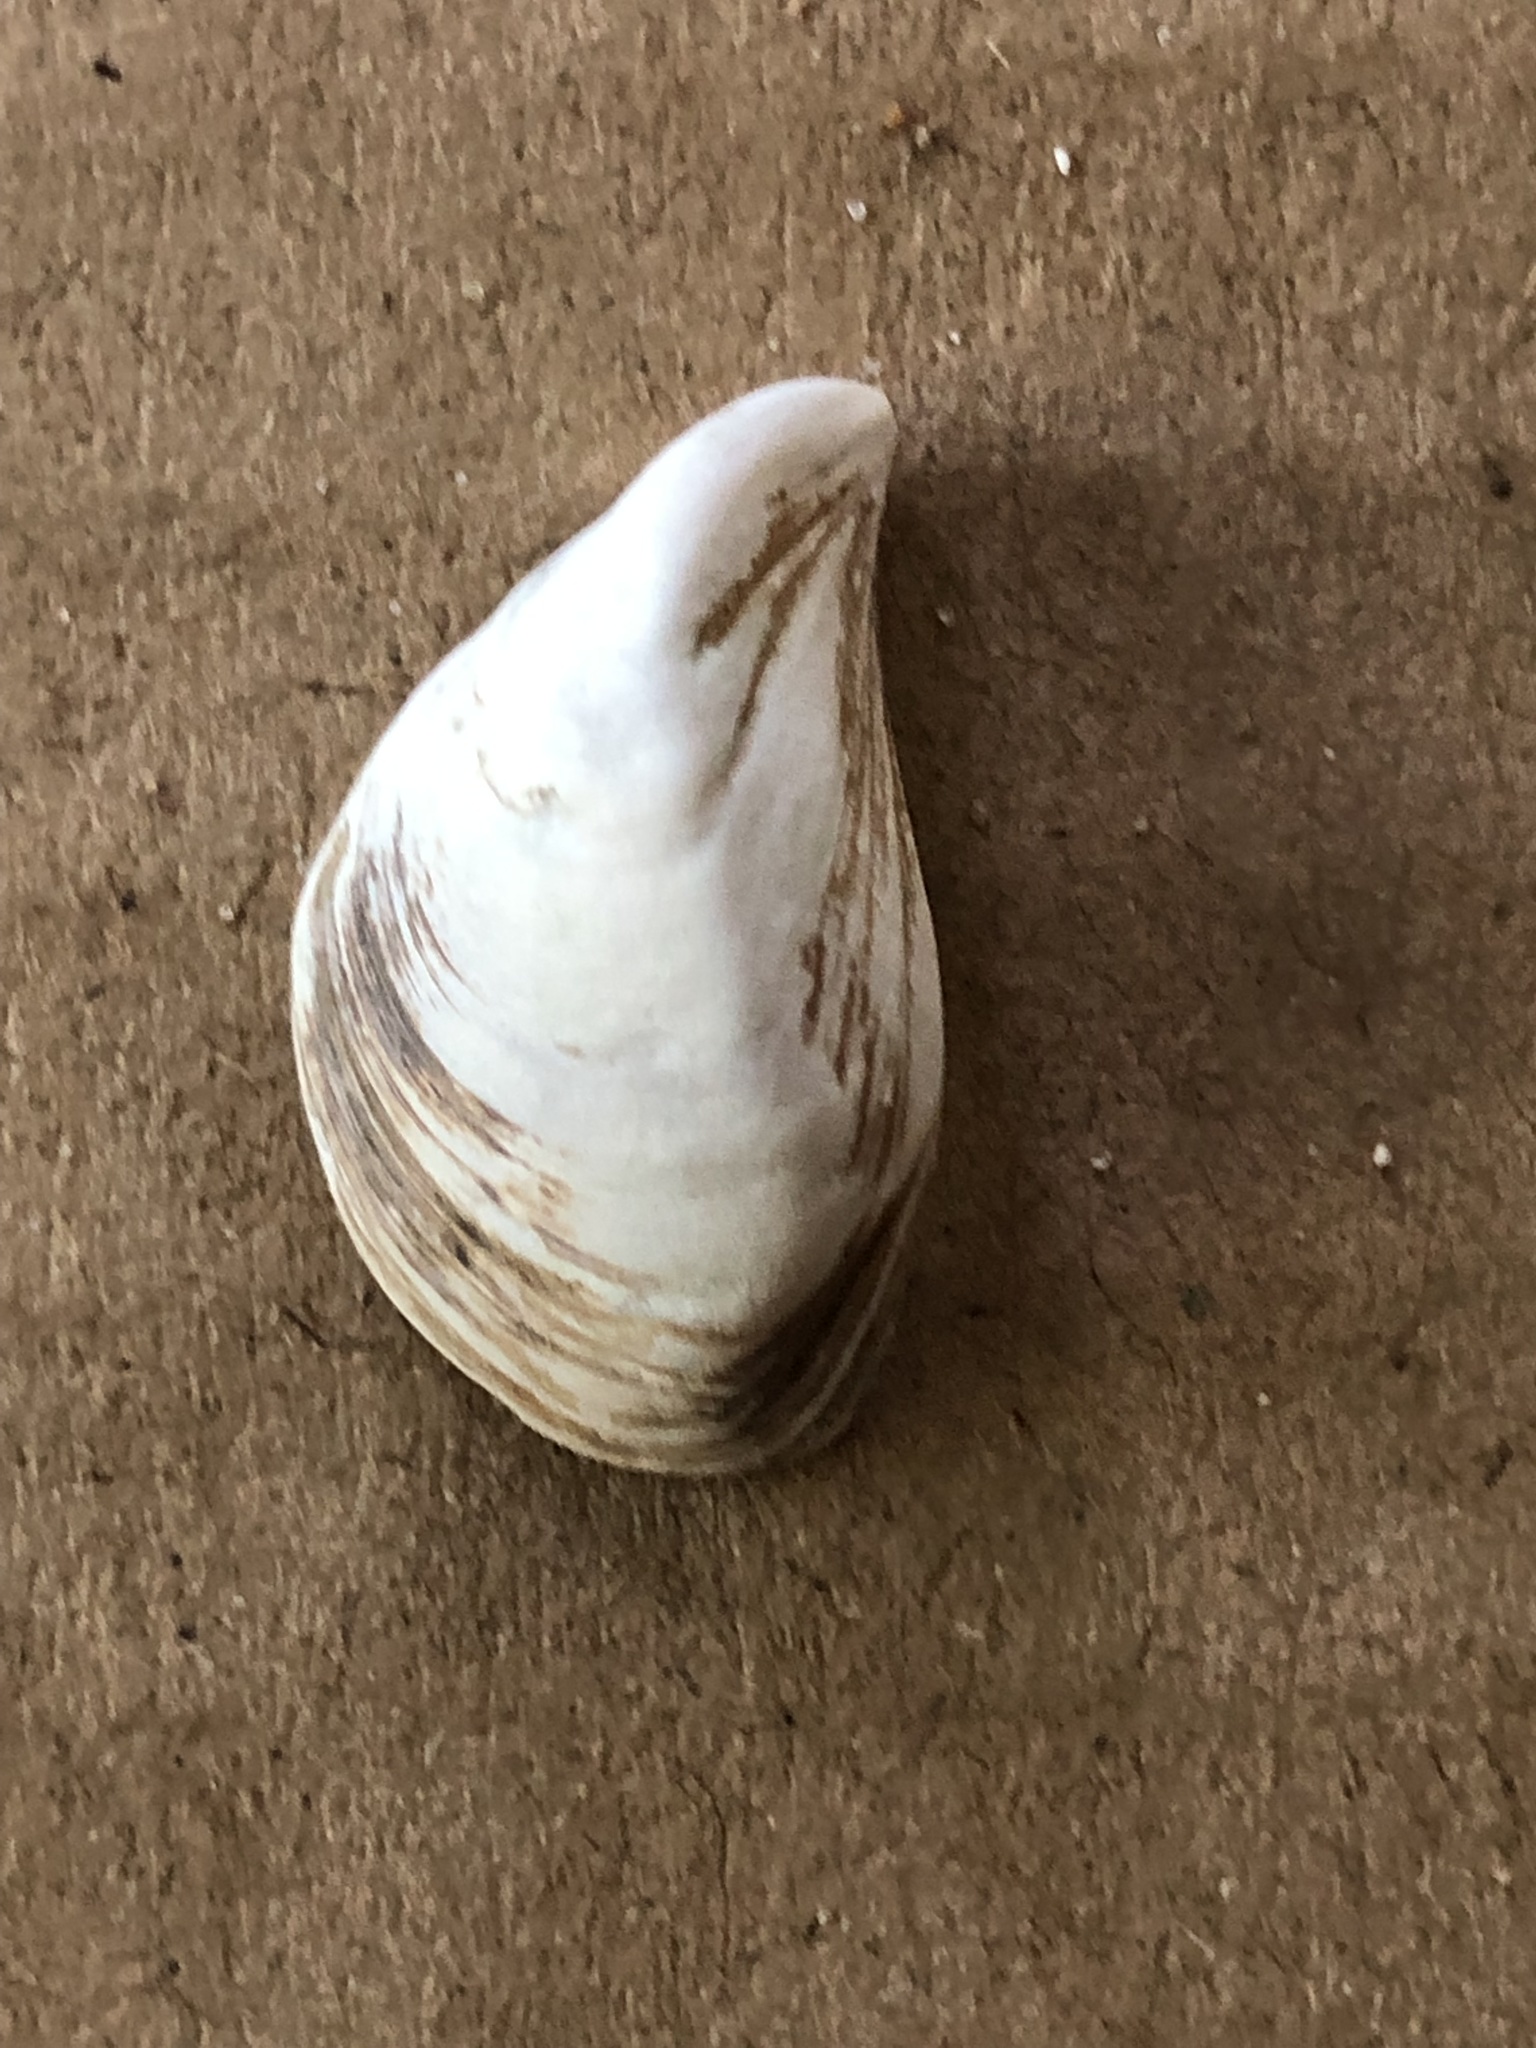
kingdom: Animalia
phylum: Mollusca
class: Bivalvia
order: Myida
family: Dreissenidae
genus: Dreissena
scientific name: Dreissena bugensis
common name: Quagga mussel
